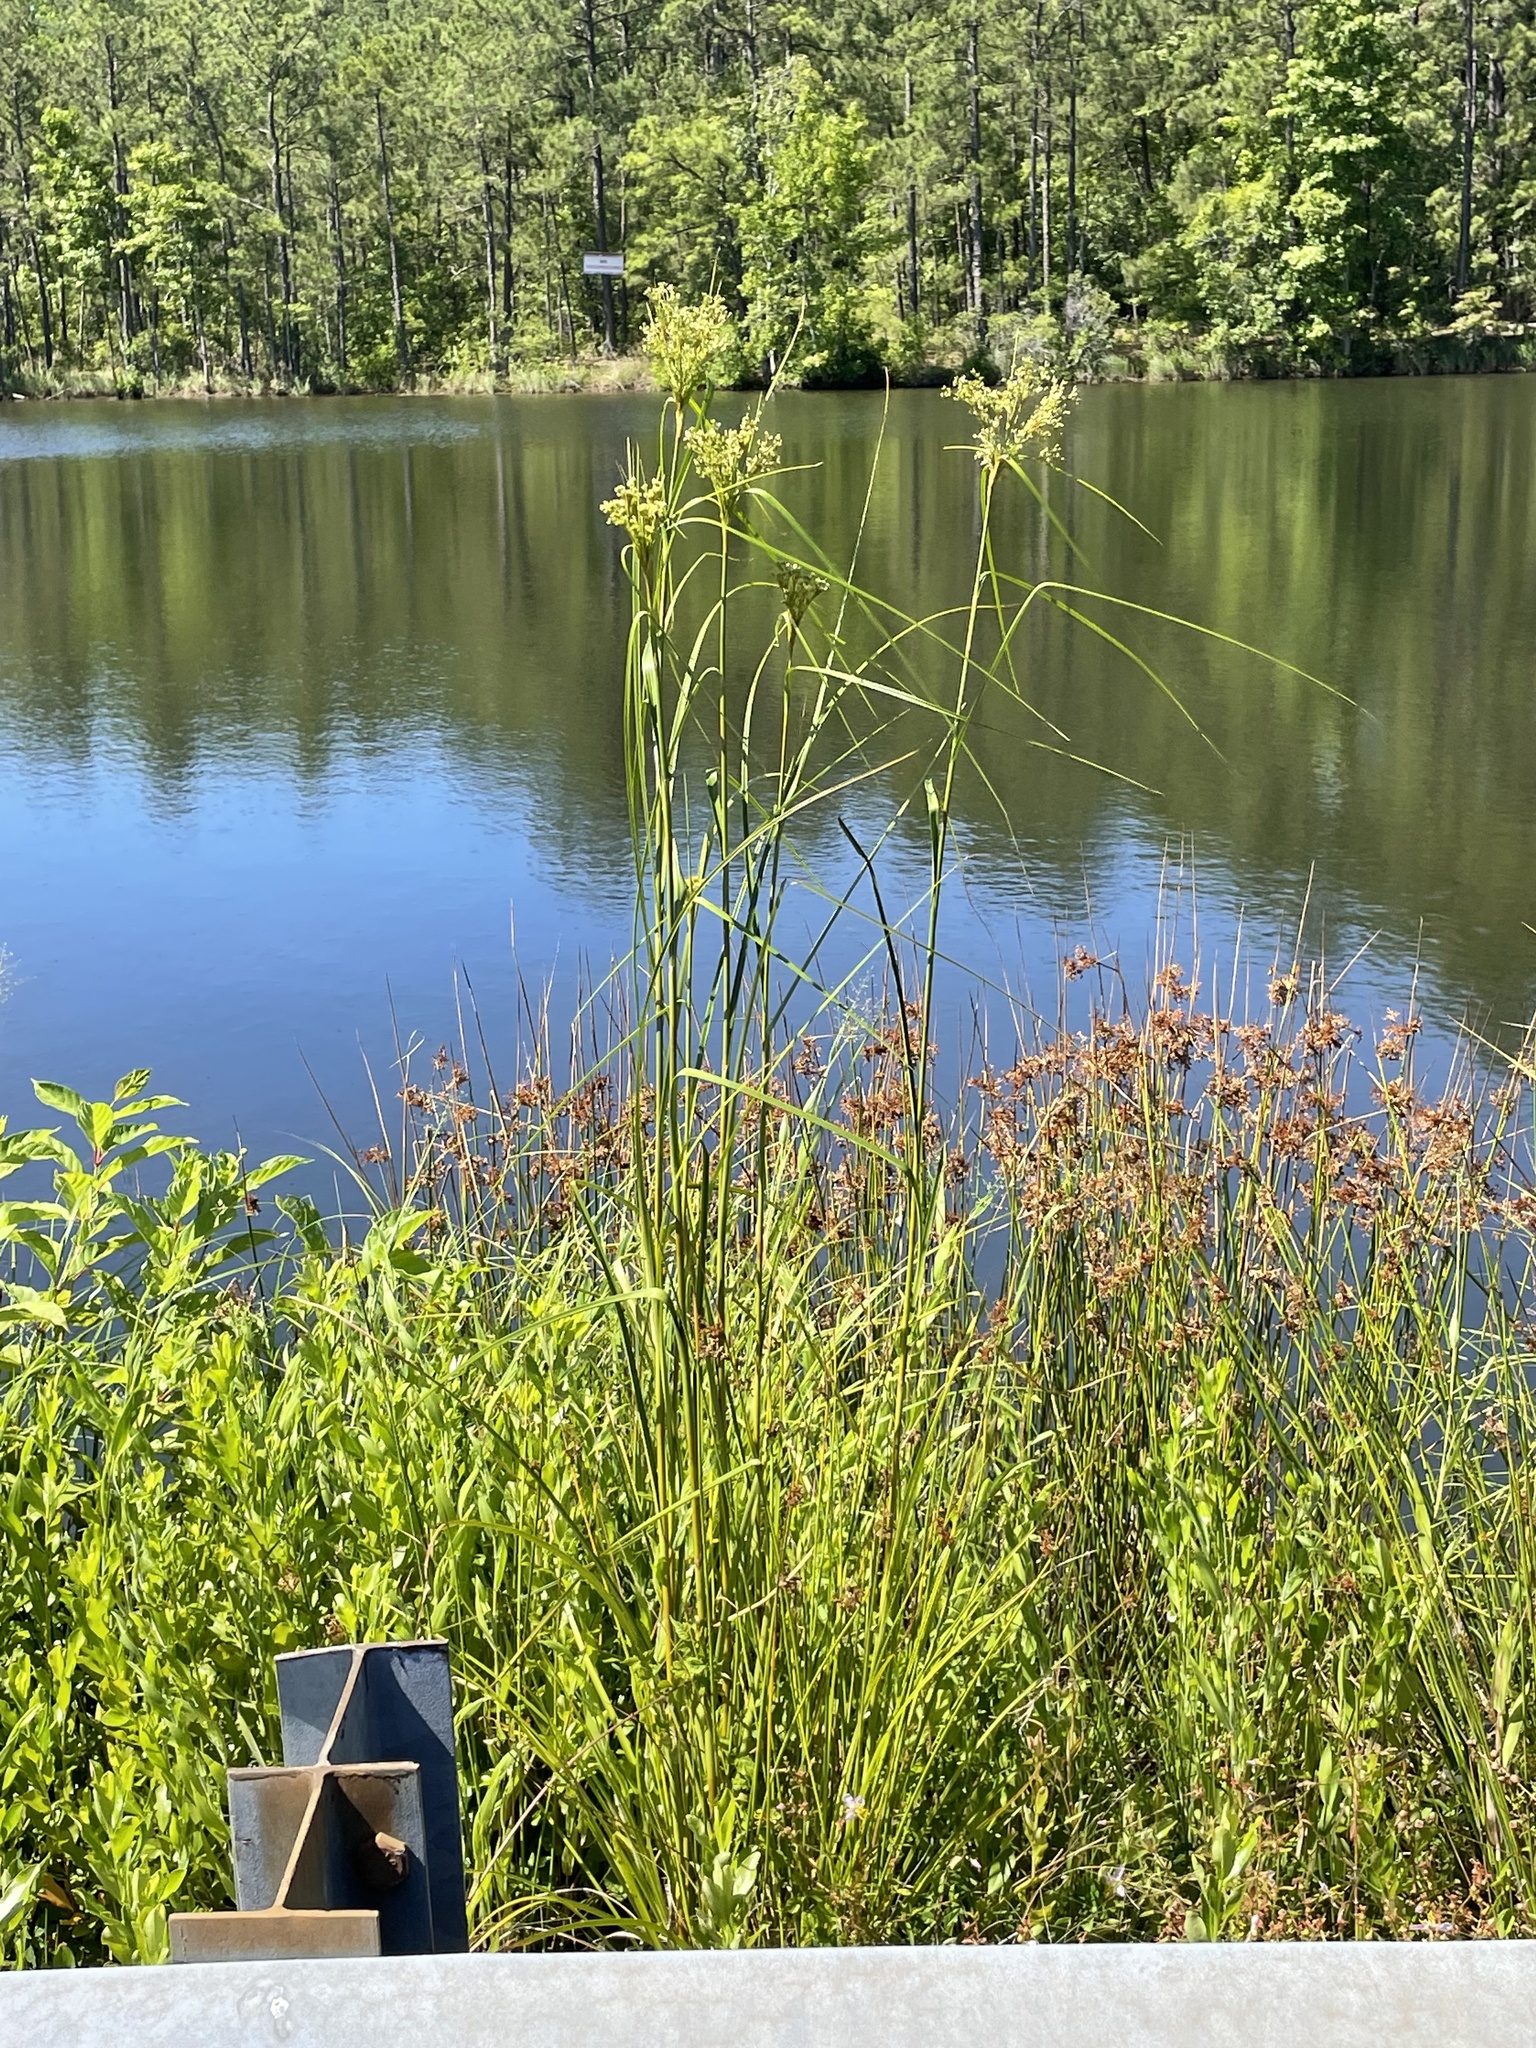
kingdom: Plantae
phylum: Tracheophyta
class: Liliopsida
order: Poales
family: Cyperaceae
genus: Scirpus
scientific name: Scirpus cyperinus
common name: Black-sheathed bulrush
